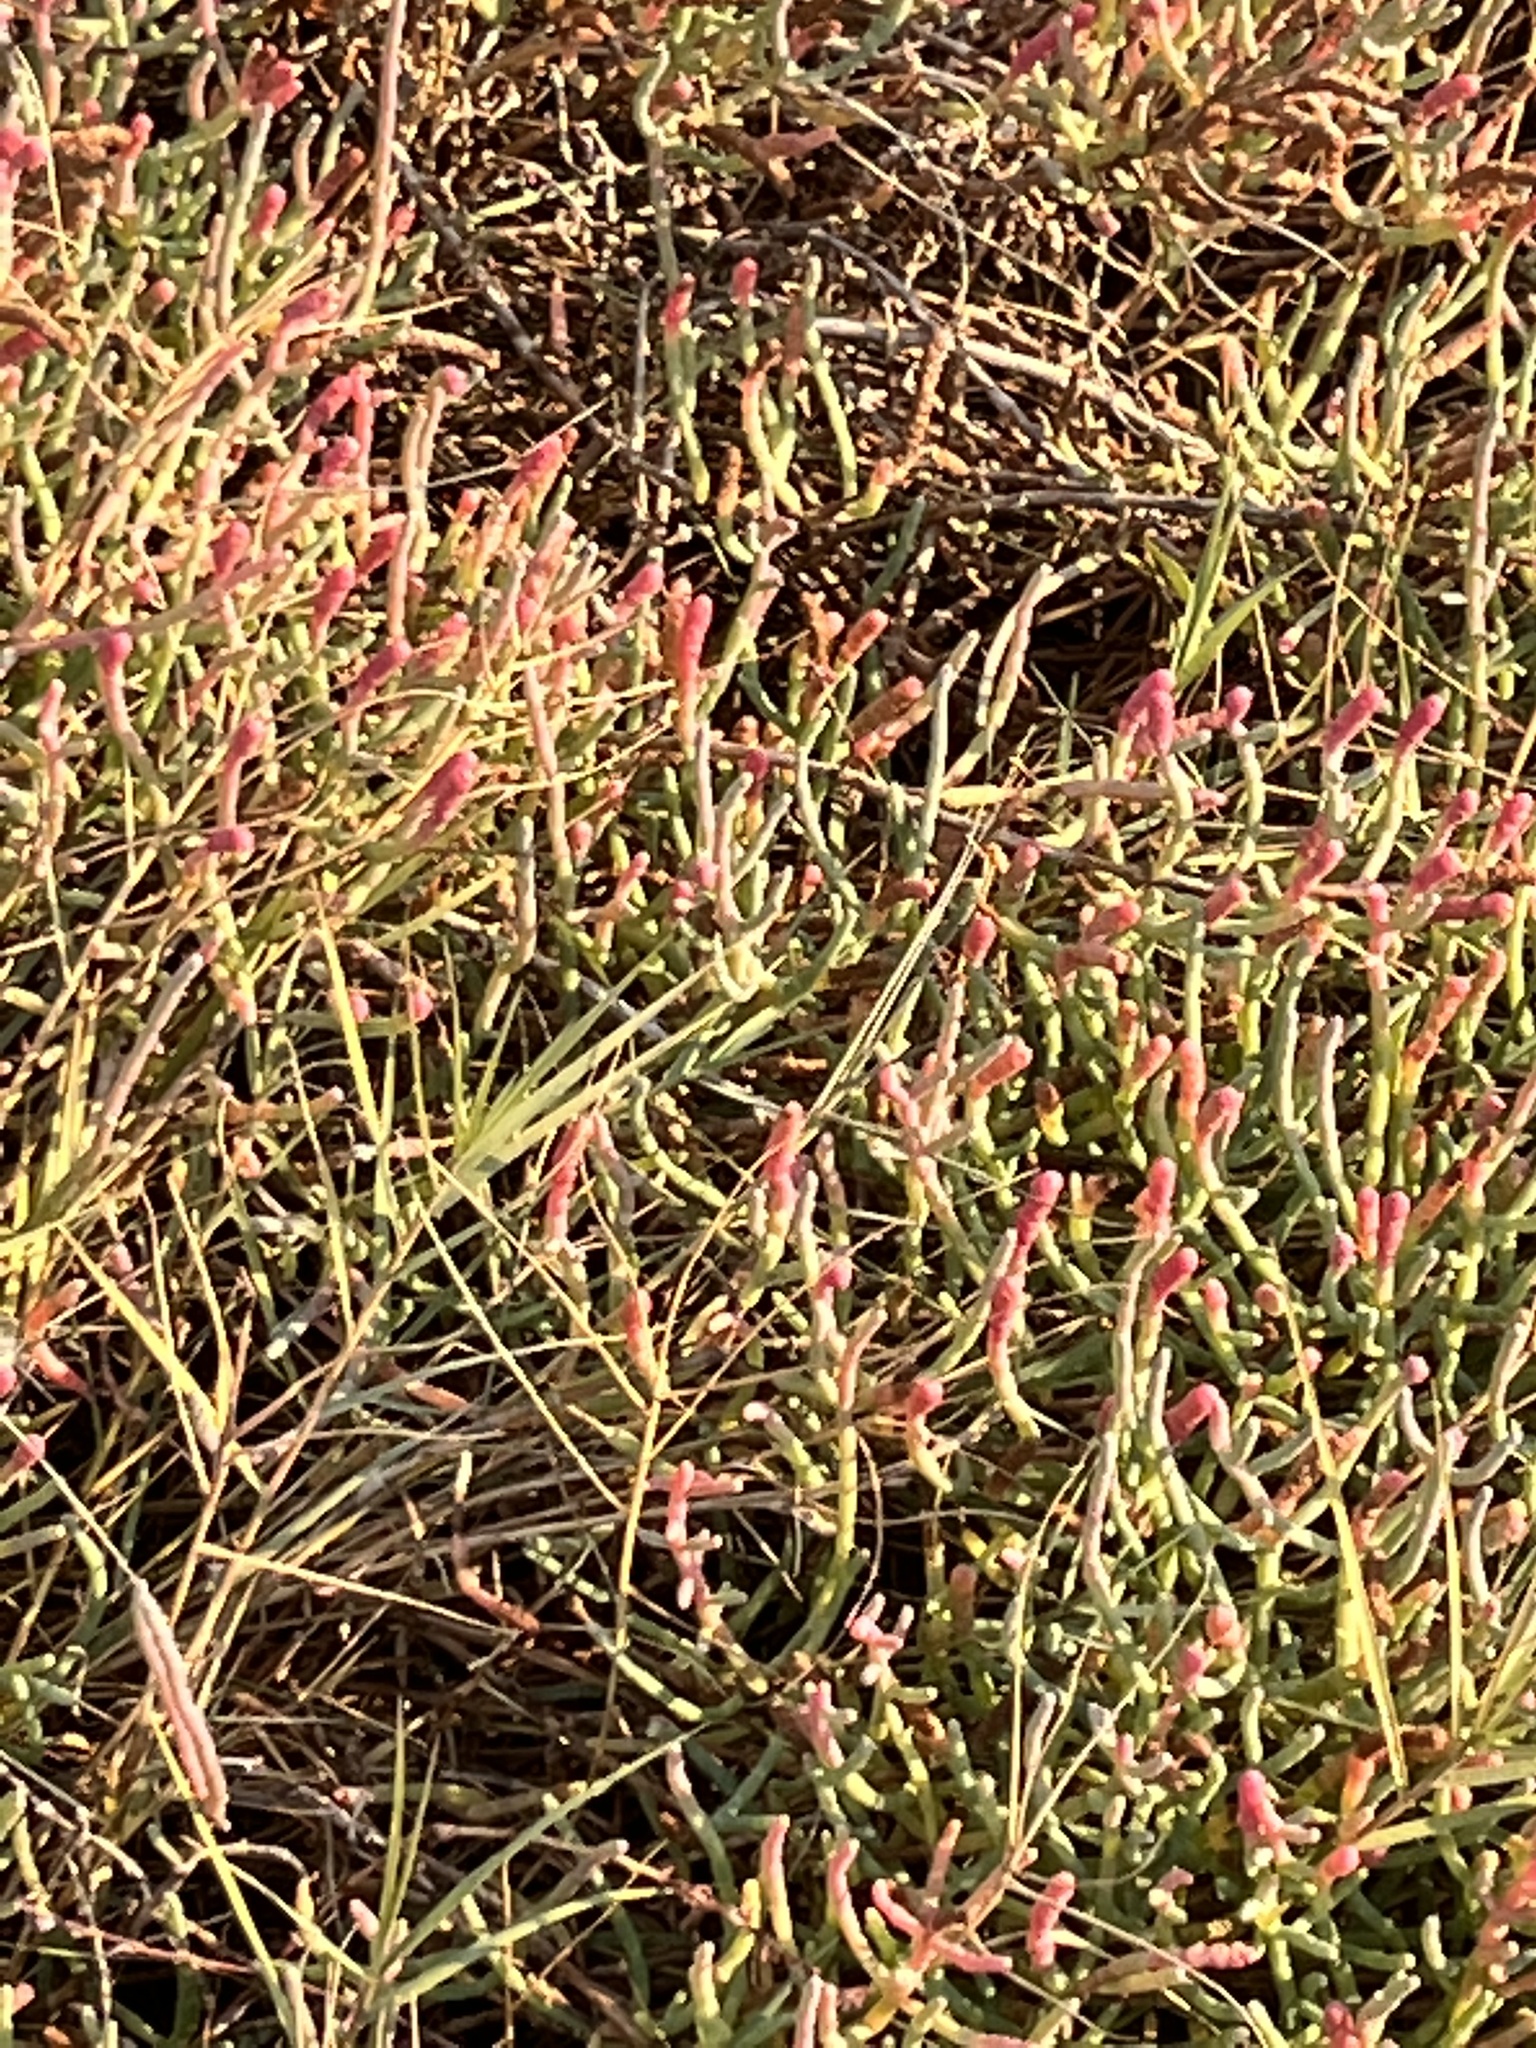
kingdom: Plantae
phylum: Tracheophyta
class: Magnoliopsida
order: Caryophyllales
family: Amaranthaceae
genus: Salicornia
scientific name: Salicornia pacifica
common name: Pacific glasswort
